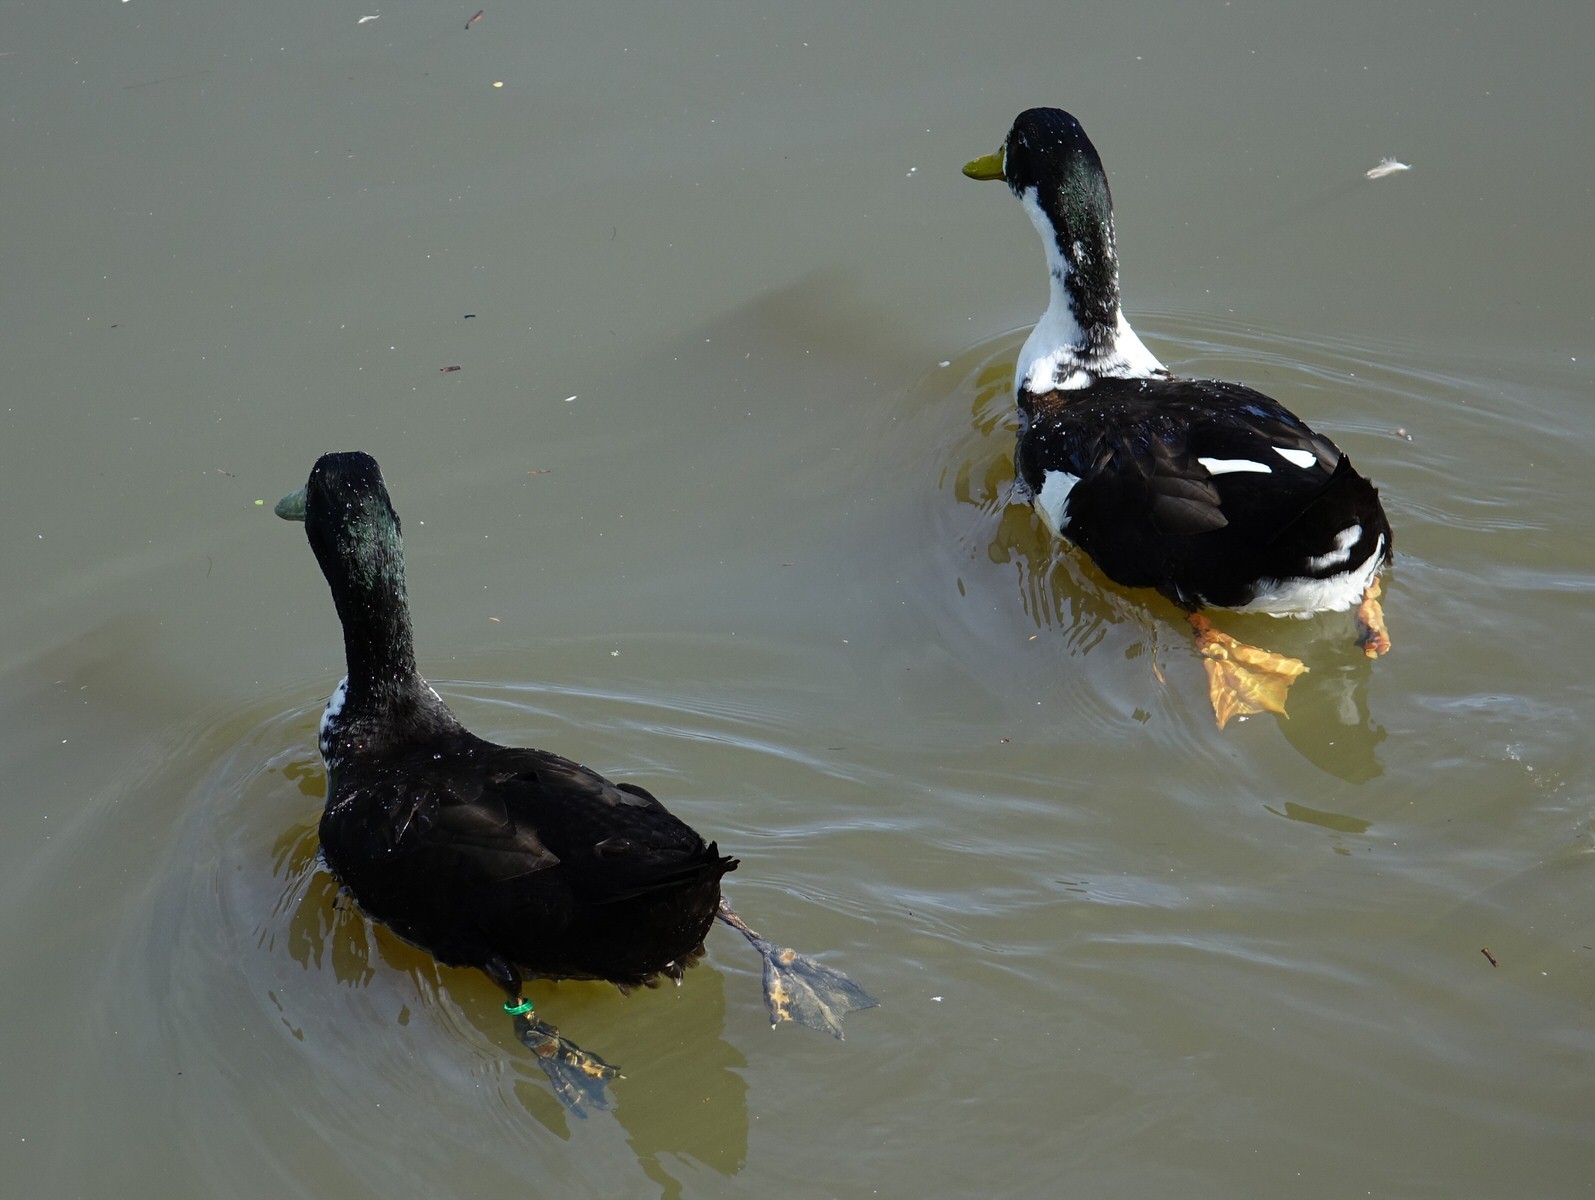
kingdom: Animalia
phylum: Chordata
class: Aves
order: Anseriformes
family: Anatidae
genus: Anas
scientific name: Anas platyrhynchos
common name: Mallard
